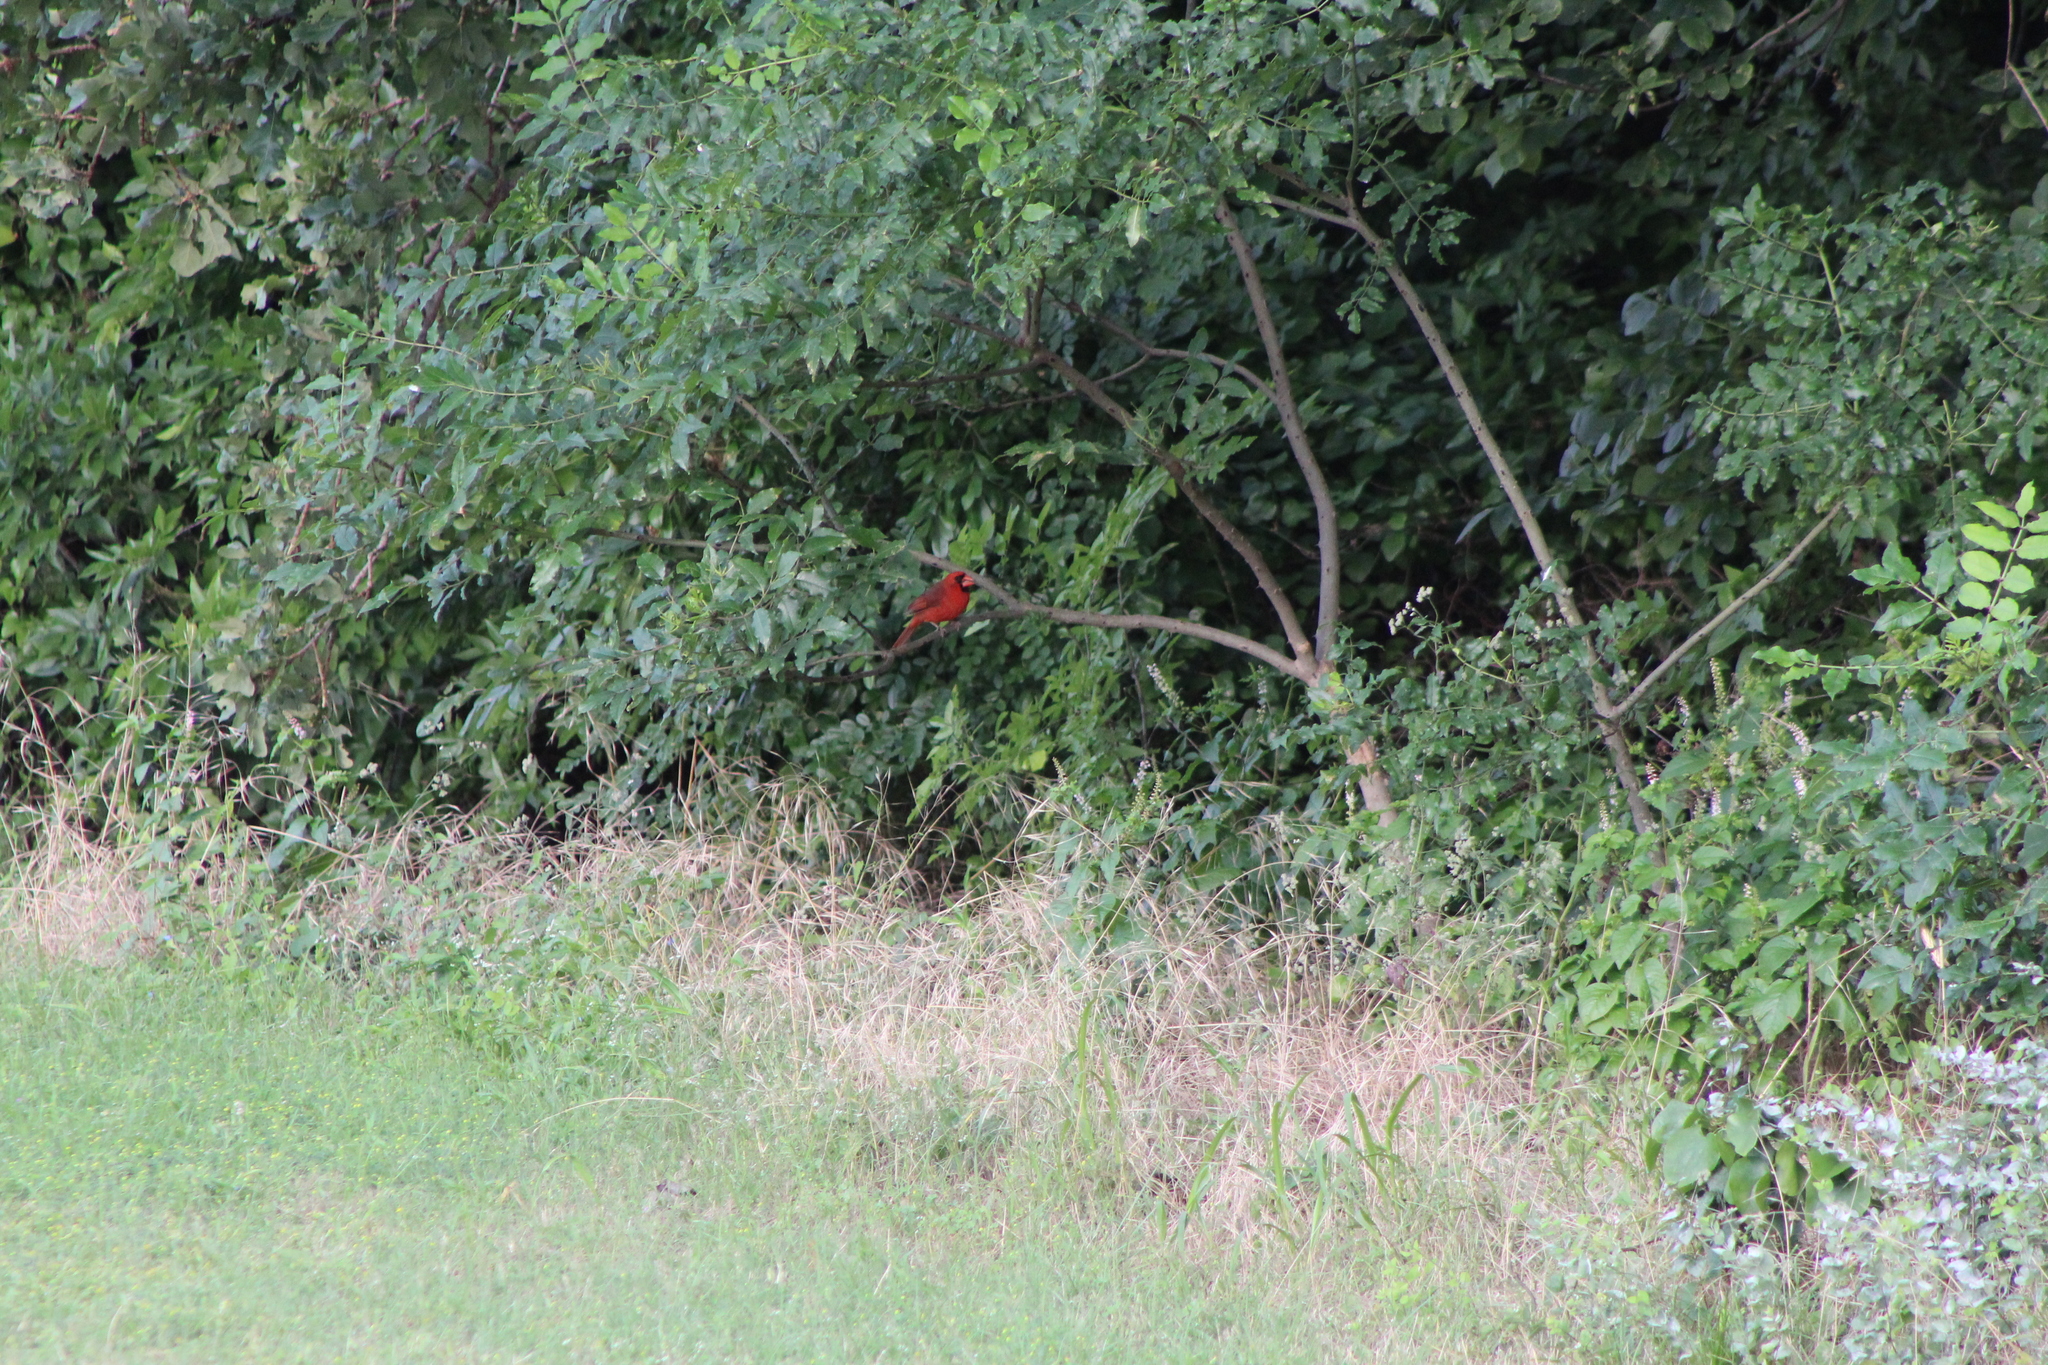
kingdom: Animalia
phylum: Chordata
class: Aves
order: Passeriformes
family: Cardinalidae
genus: Cardinalis
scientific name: Cardinalis cardinalis
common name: Northern cardinal
